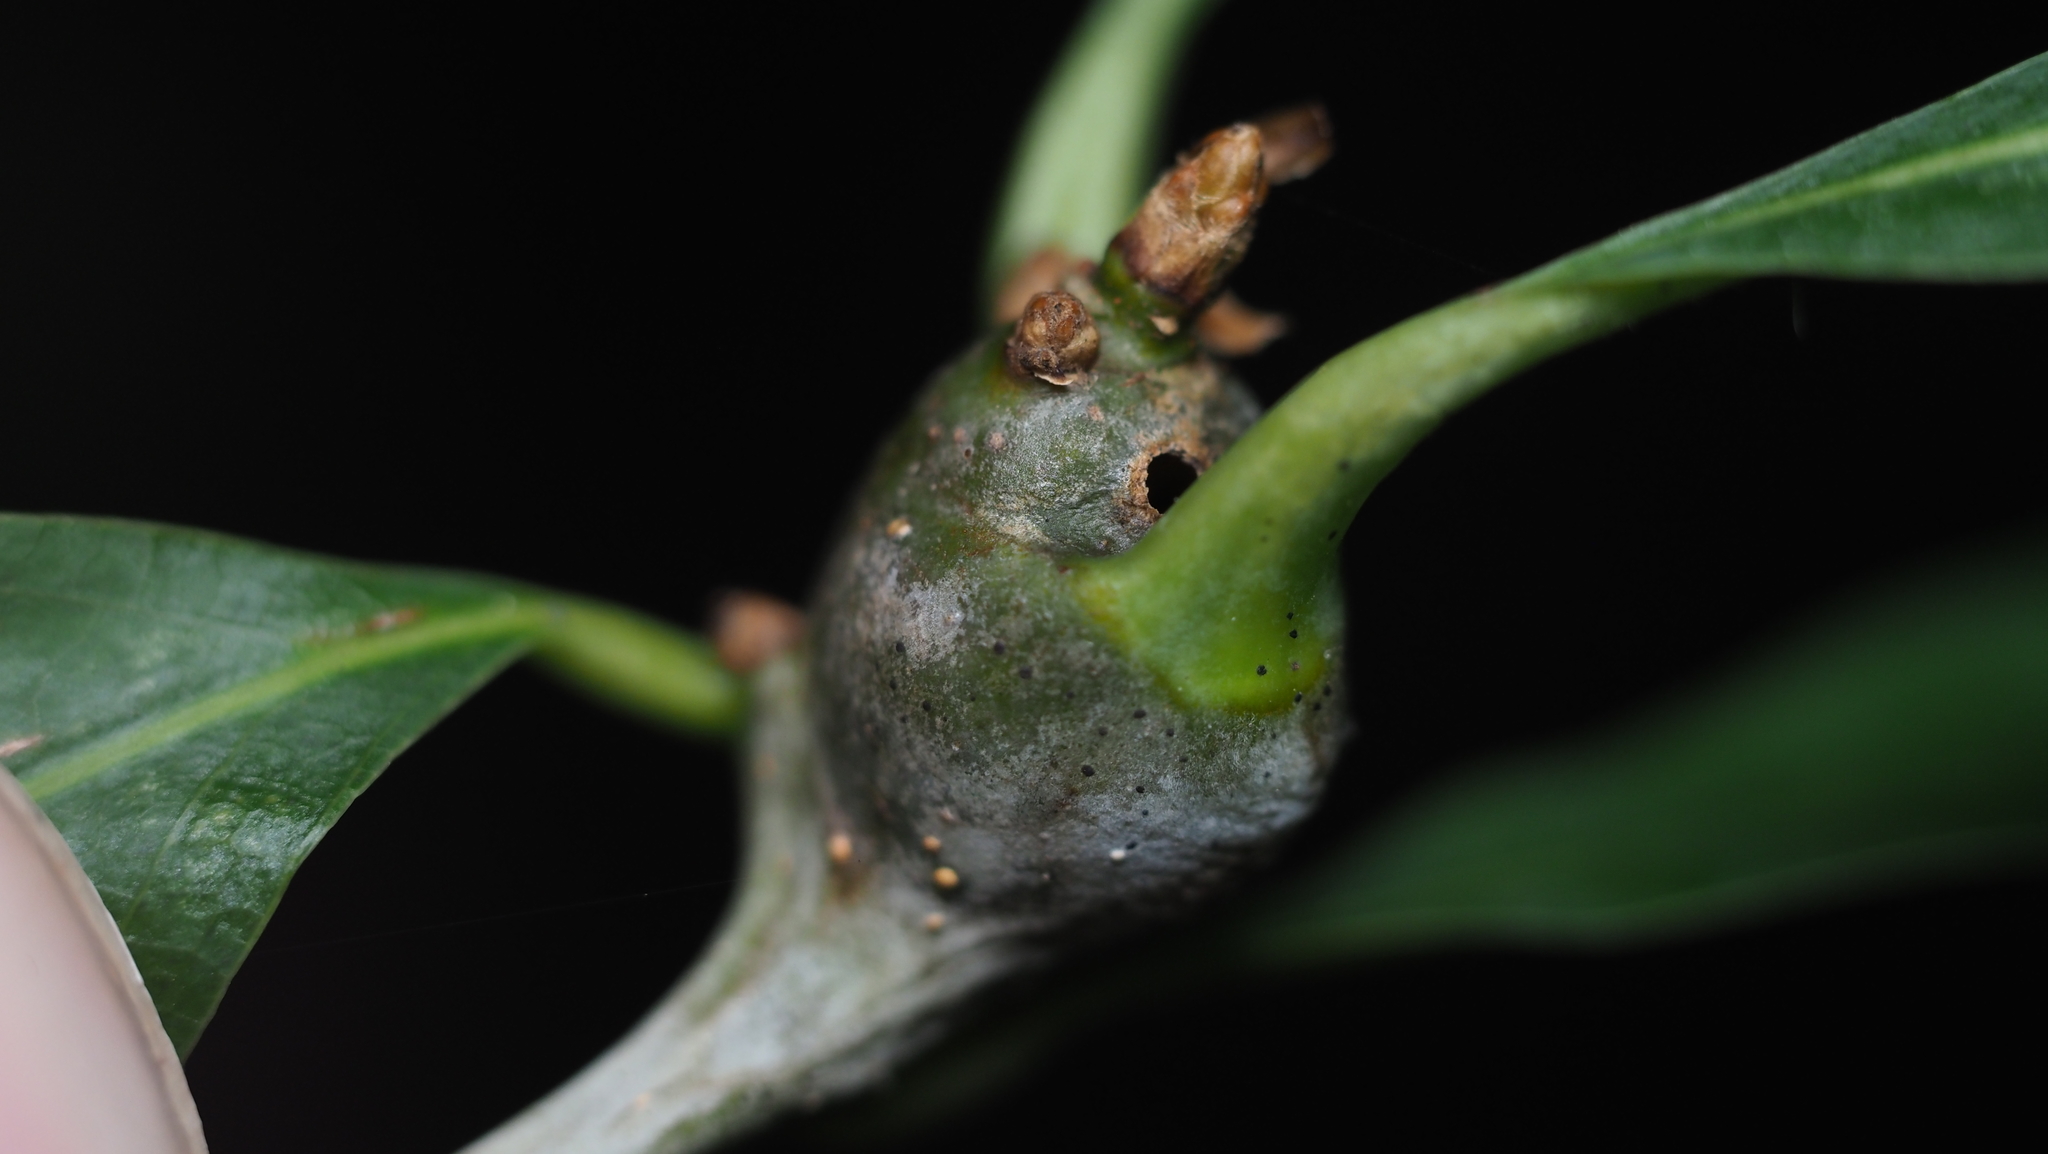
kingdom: Animalia
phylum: Arthropoda
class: Insecta
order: Hymenoptera
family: Cynipidae
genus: Callirhytis
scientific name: Callirhytis clavula
